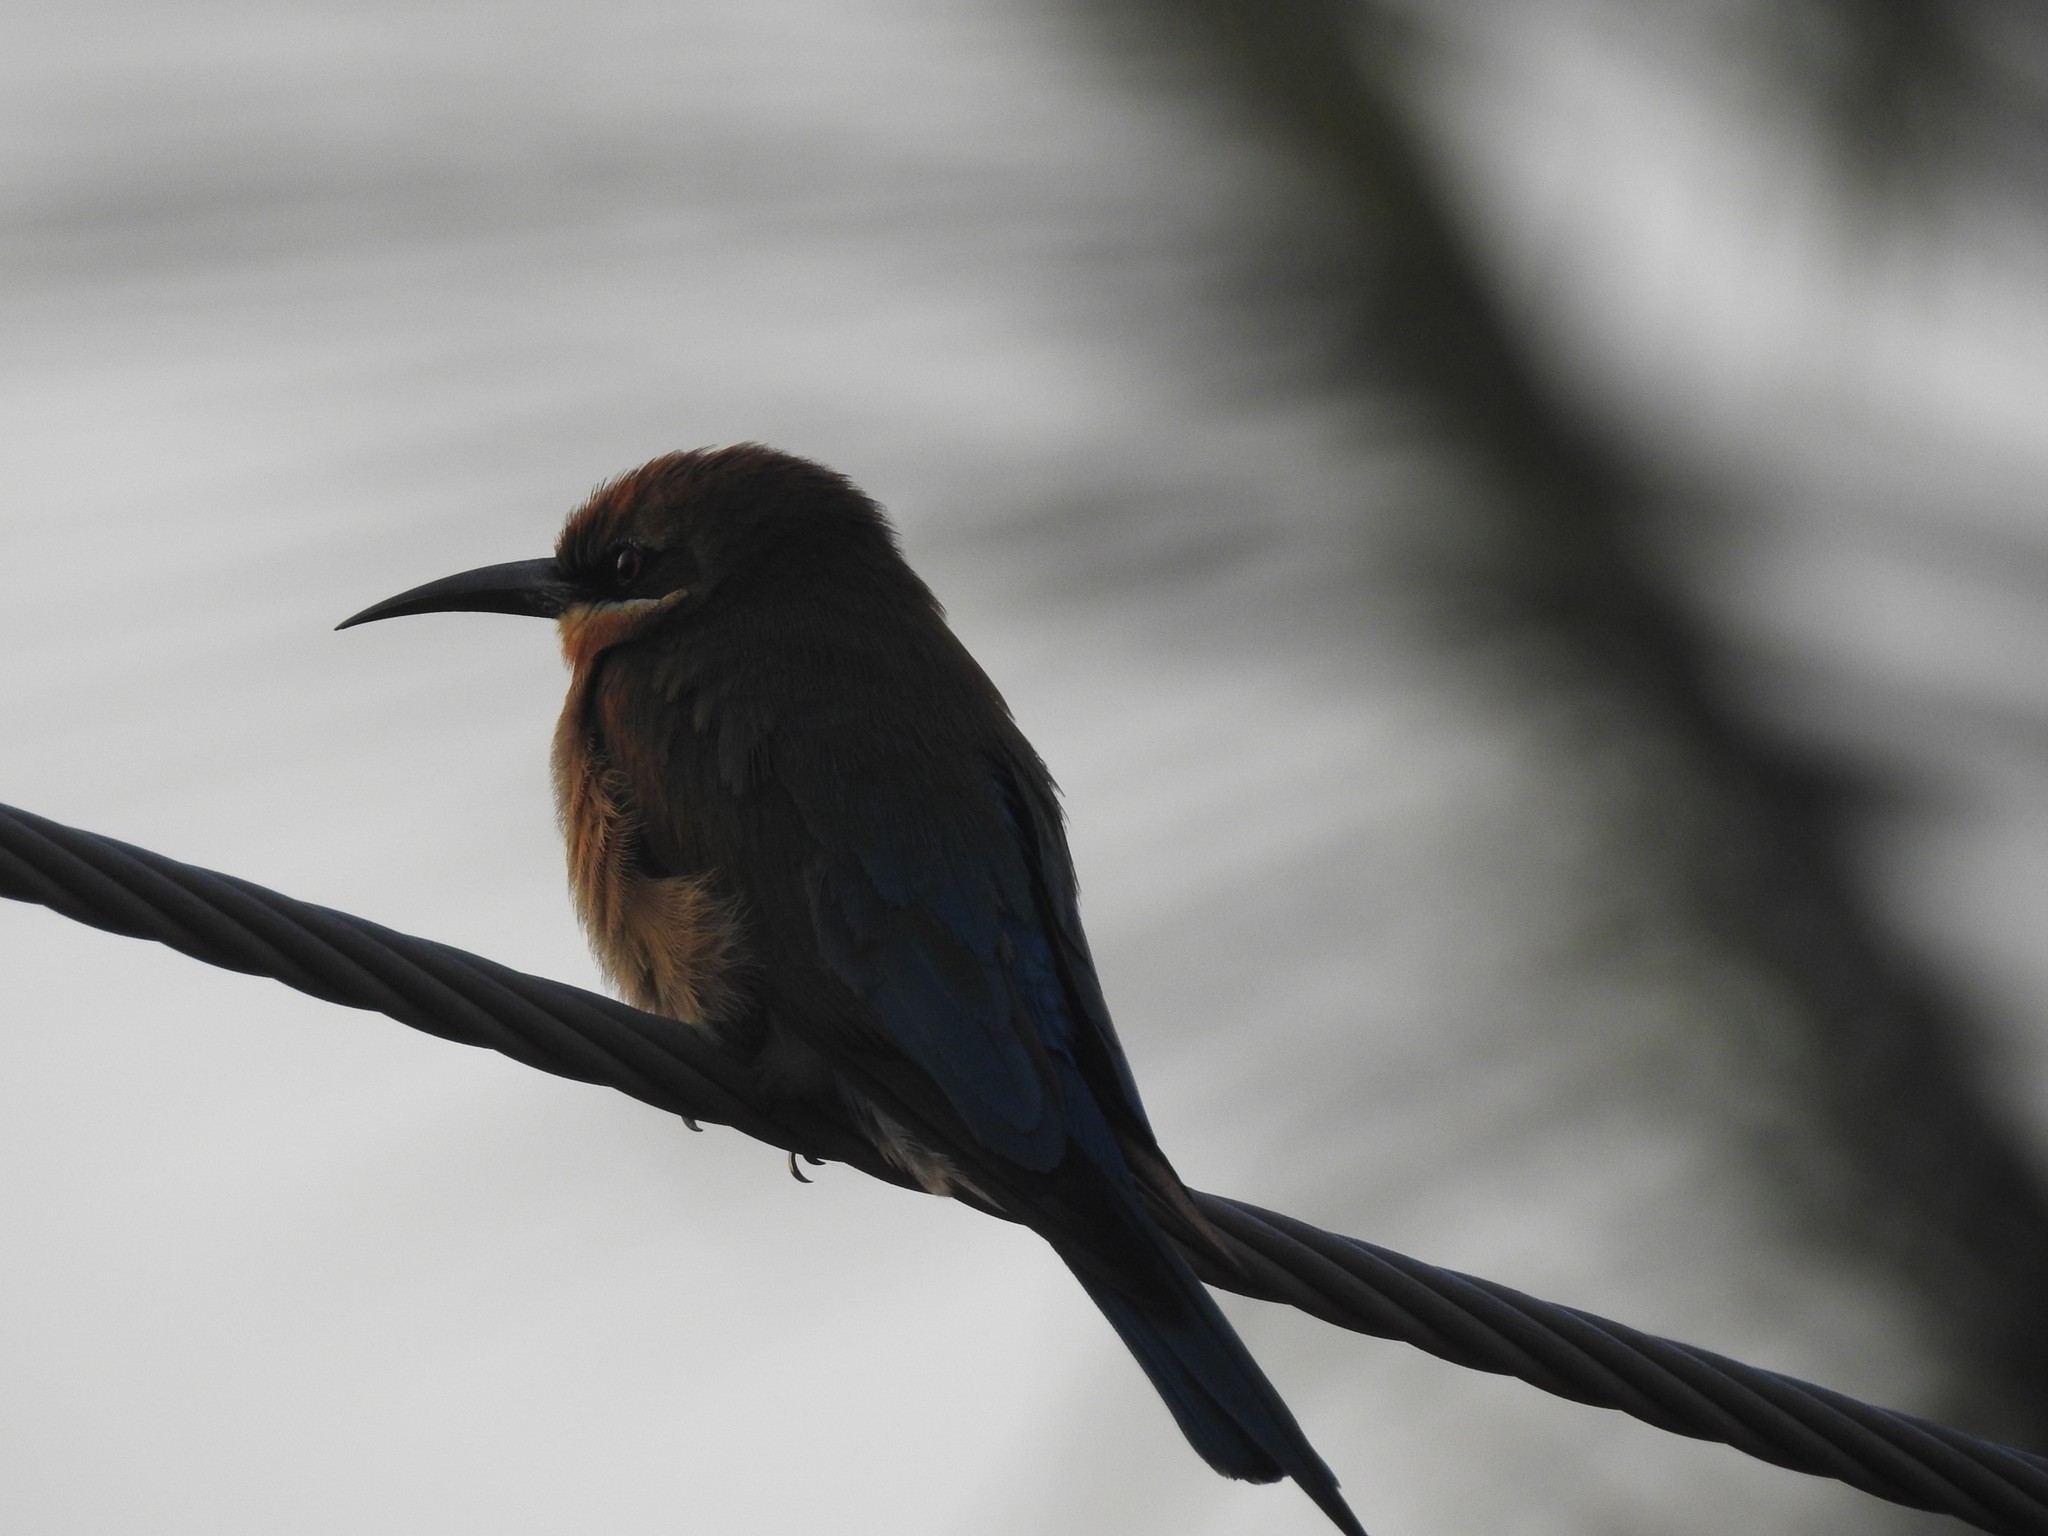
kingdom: Animalia
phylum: Chordata
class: Aves
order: Coraciiformes
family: Meropidae
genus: Merops
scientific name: Merops philippinus
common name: Blue-tailed bee-eater
